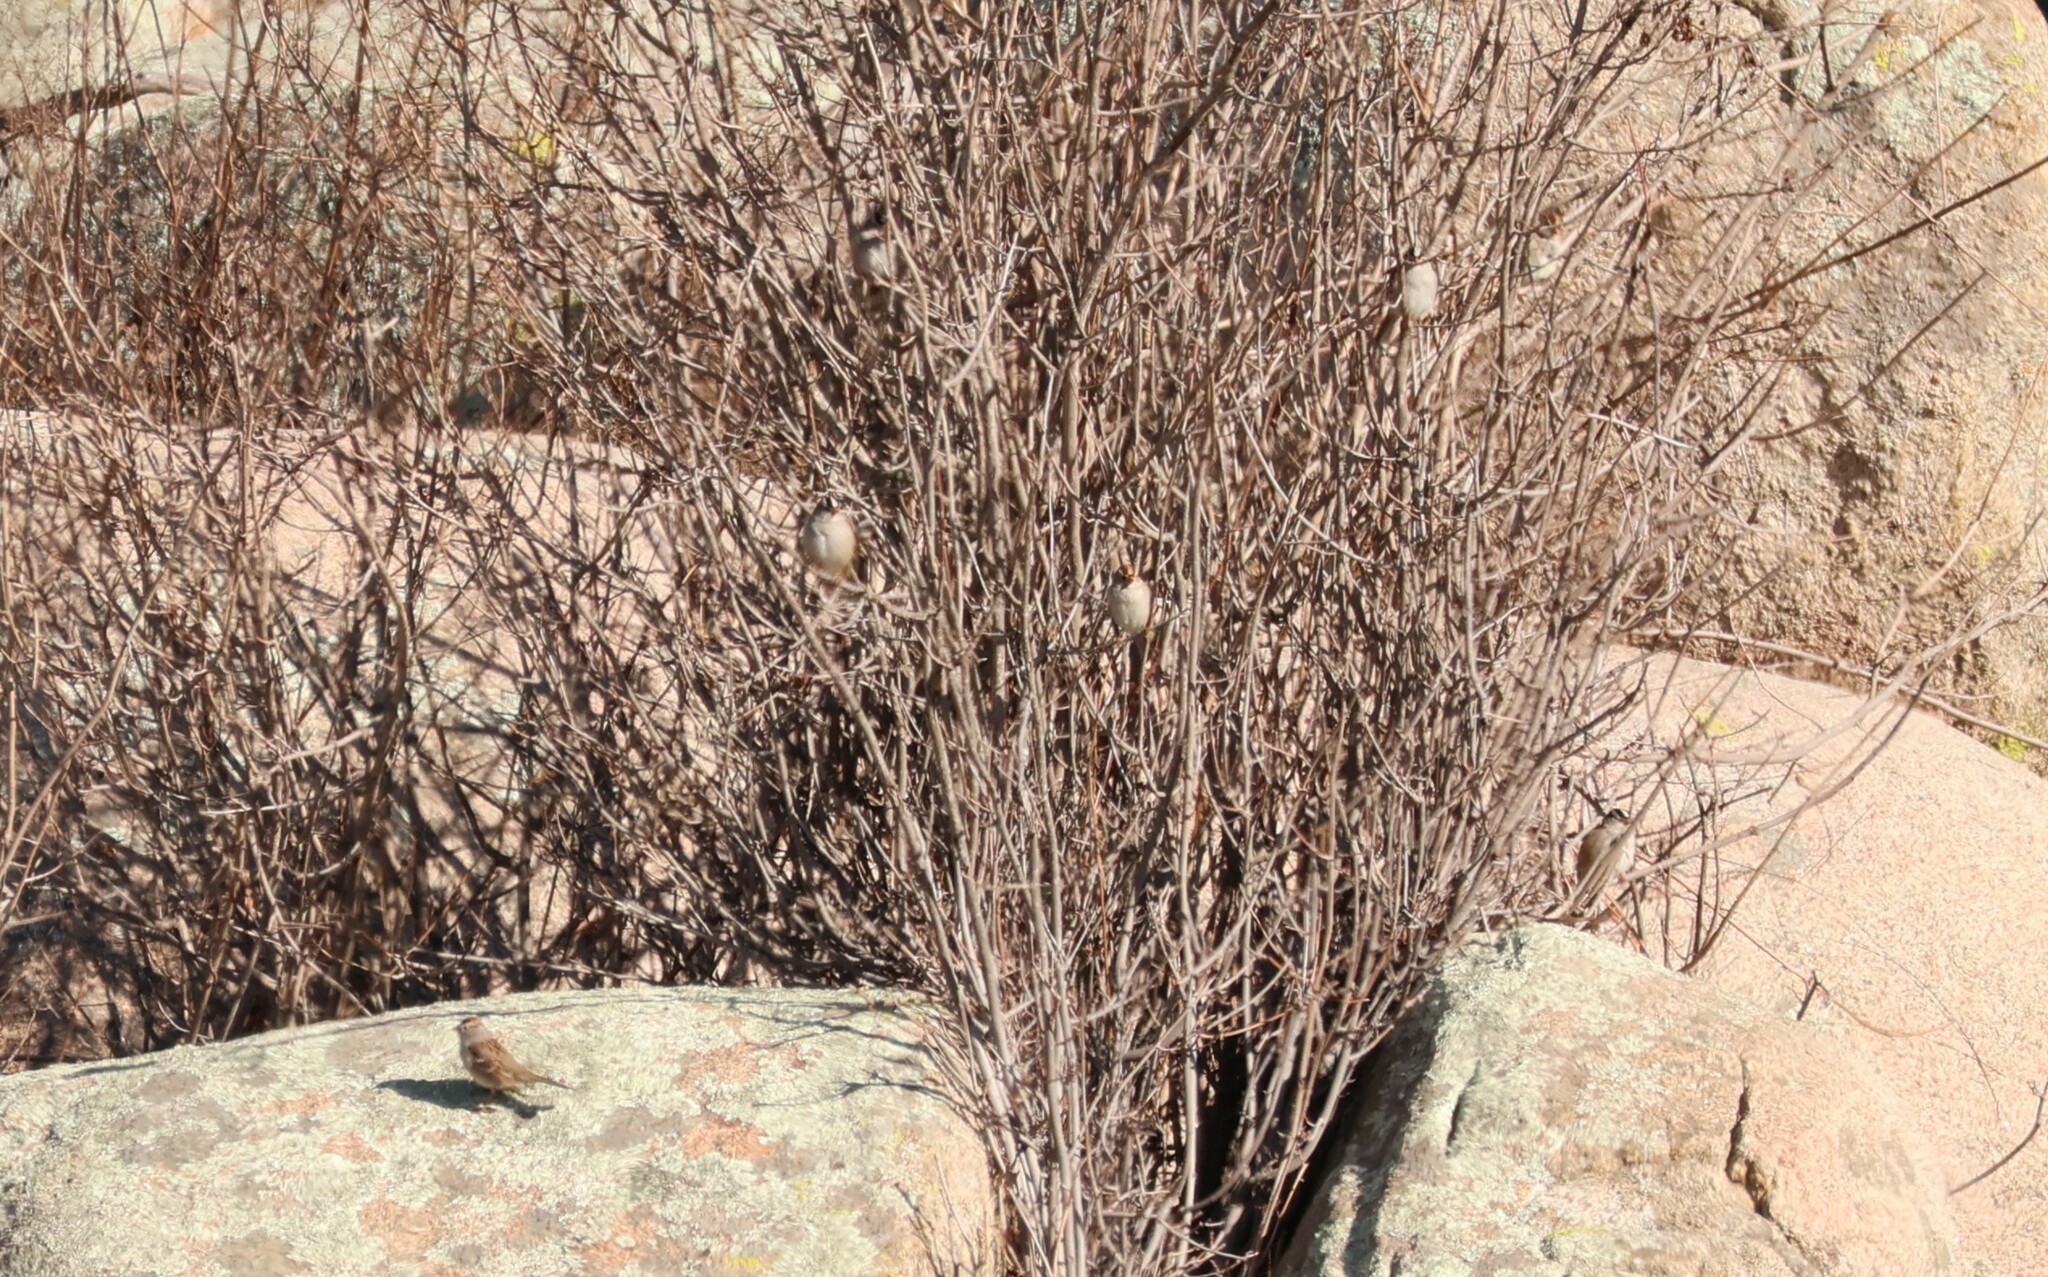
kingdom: Animalia
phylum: Chordata
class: Aves
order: Passeriformes
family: Passerellidae
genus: Zonotrichia
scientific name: Zonotrichia leucophrys
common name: White-crowned sparrow
